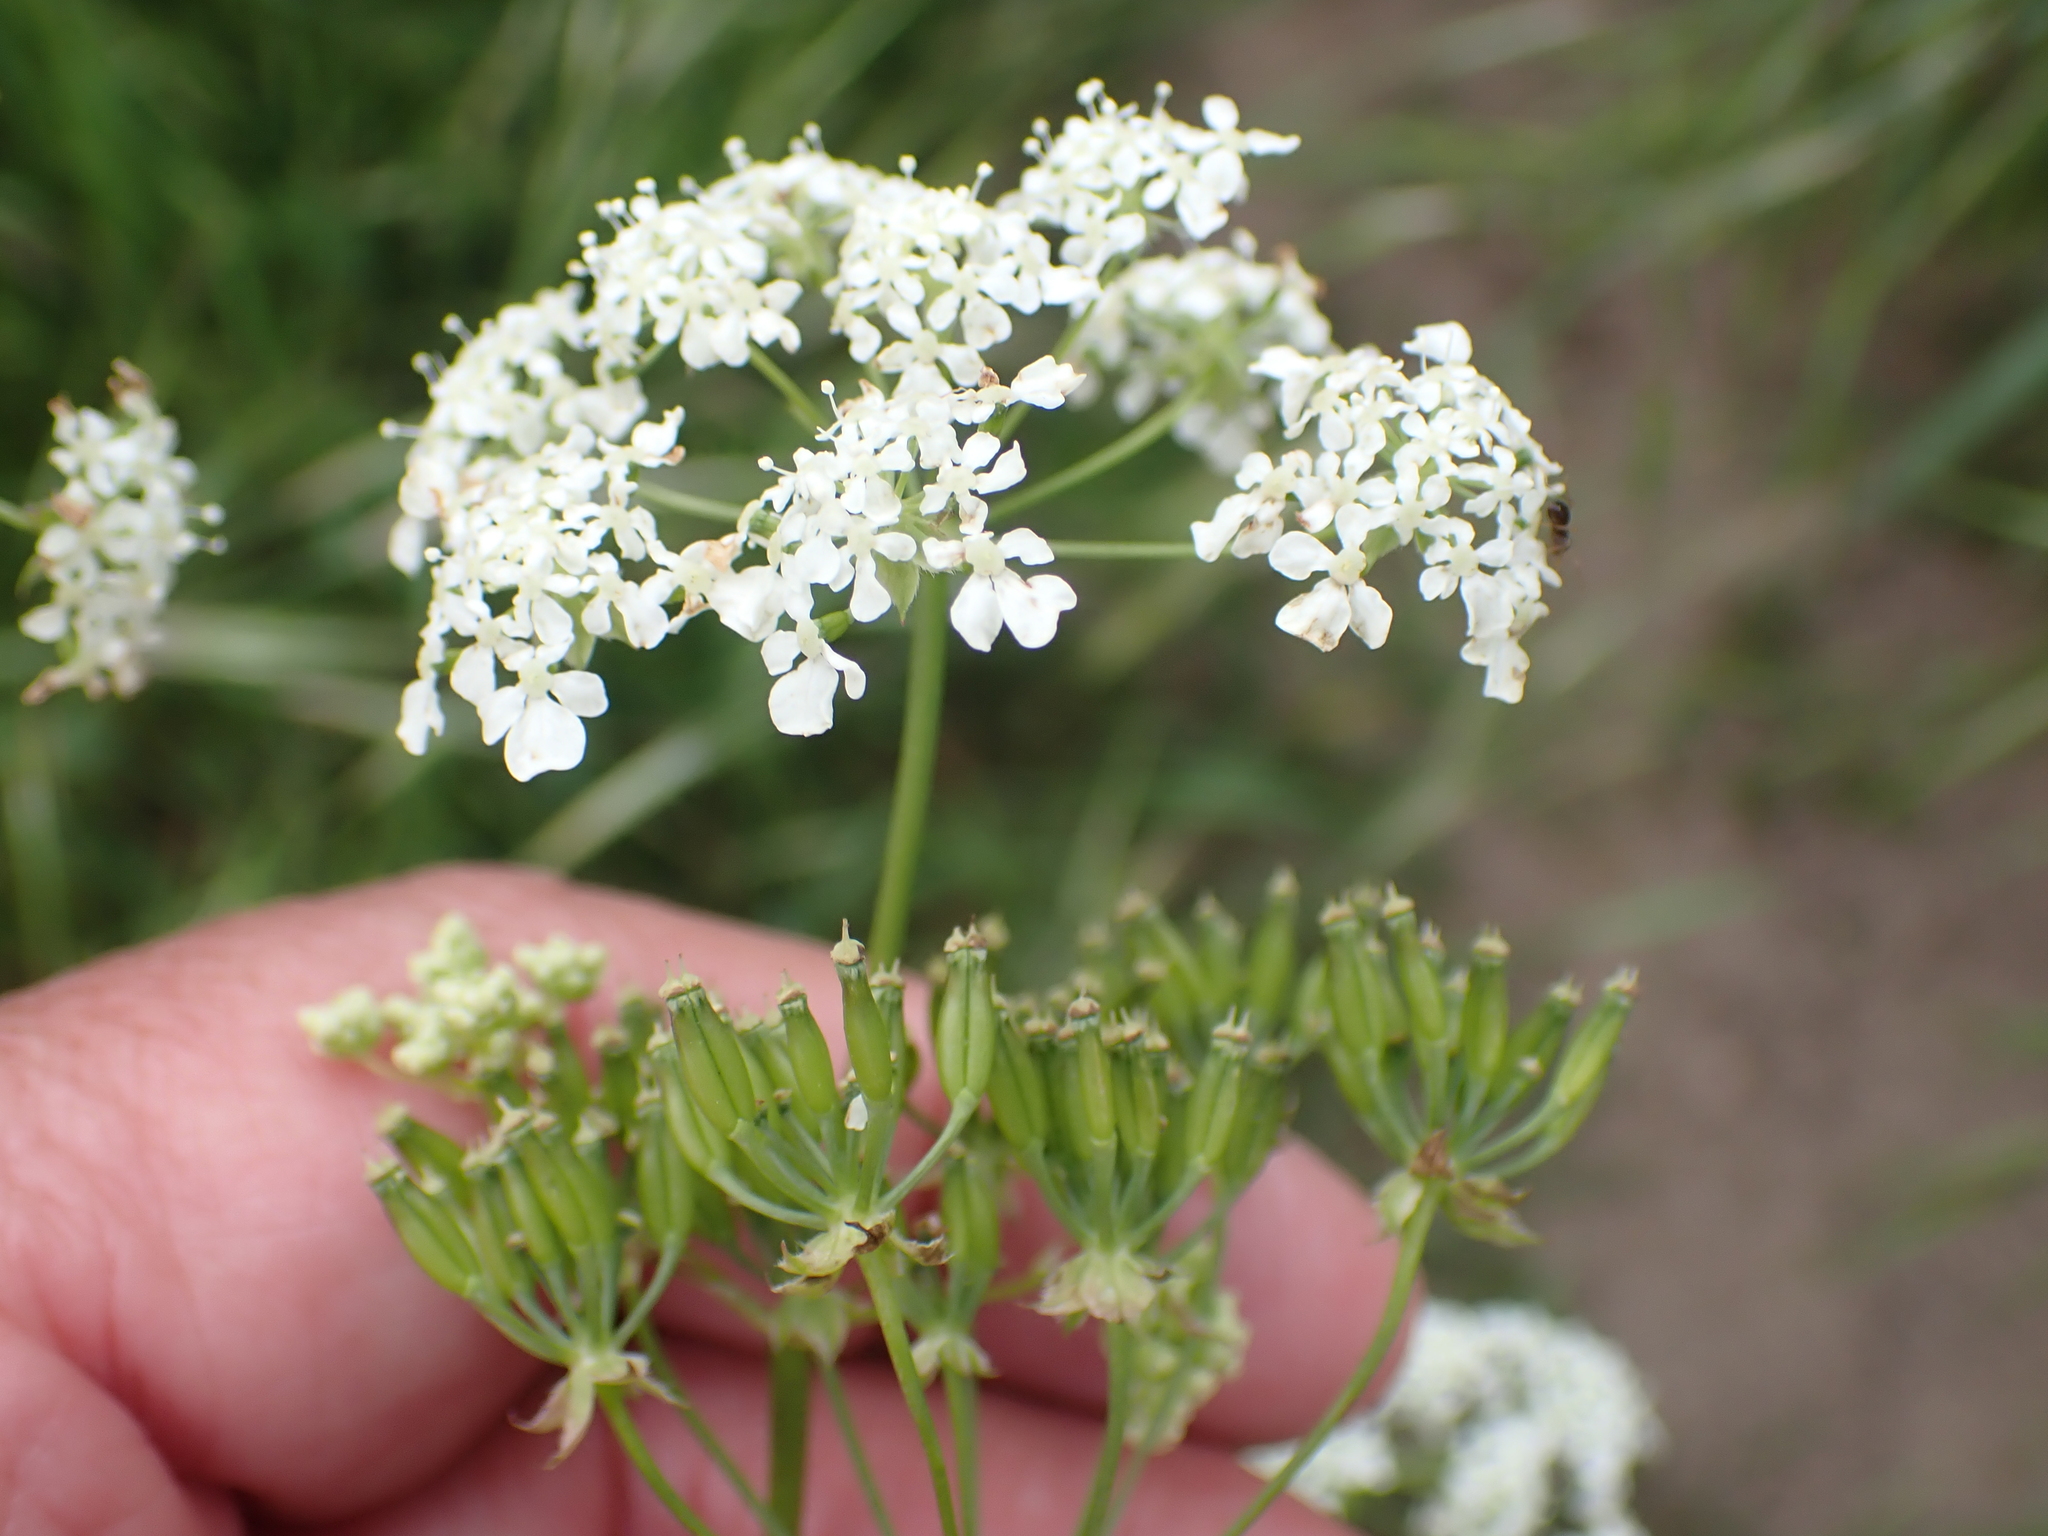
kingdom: Plantae
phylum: Tracheophyta
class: Magnoliopsida
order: Apiales
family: Apiaceae
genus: Anthriscus
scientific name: Anthriscus sylvestris
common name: Cow parsley
